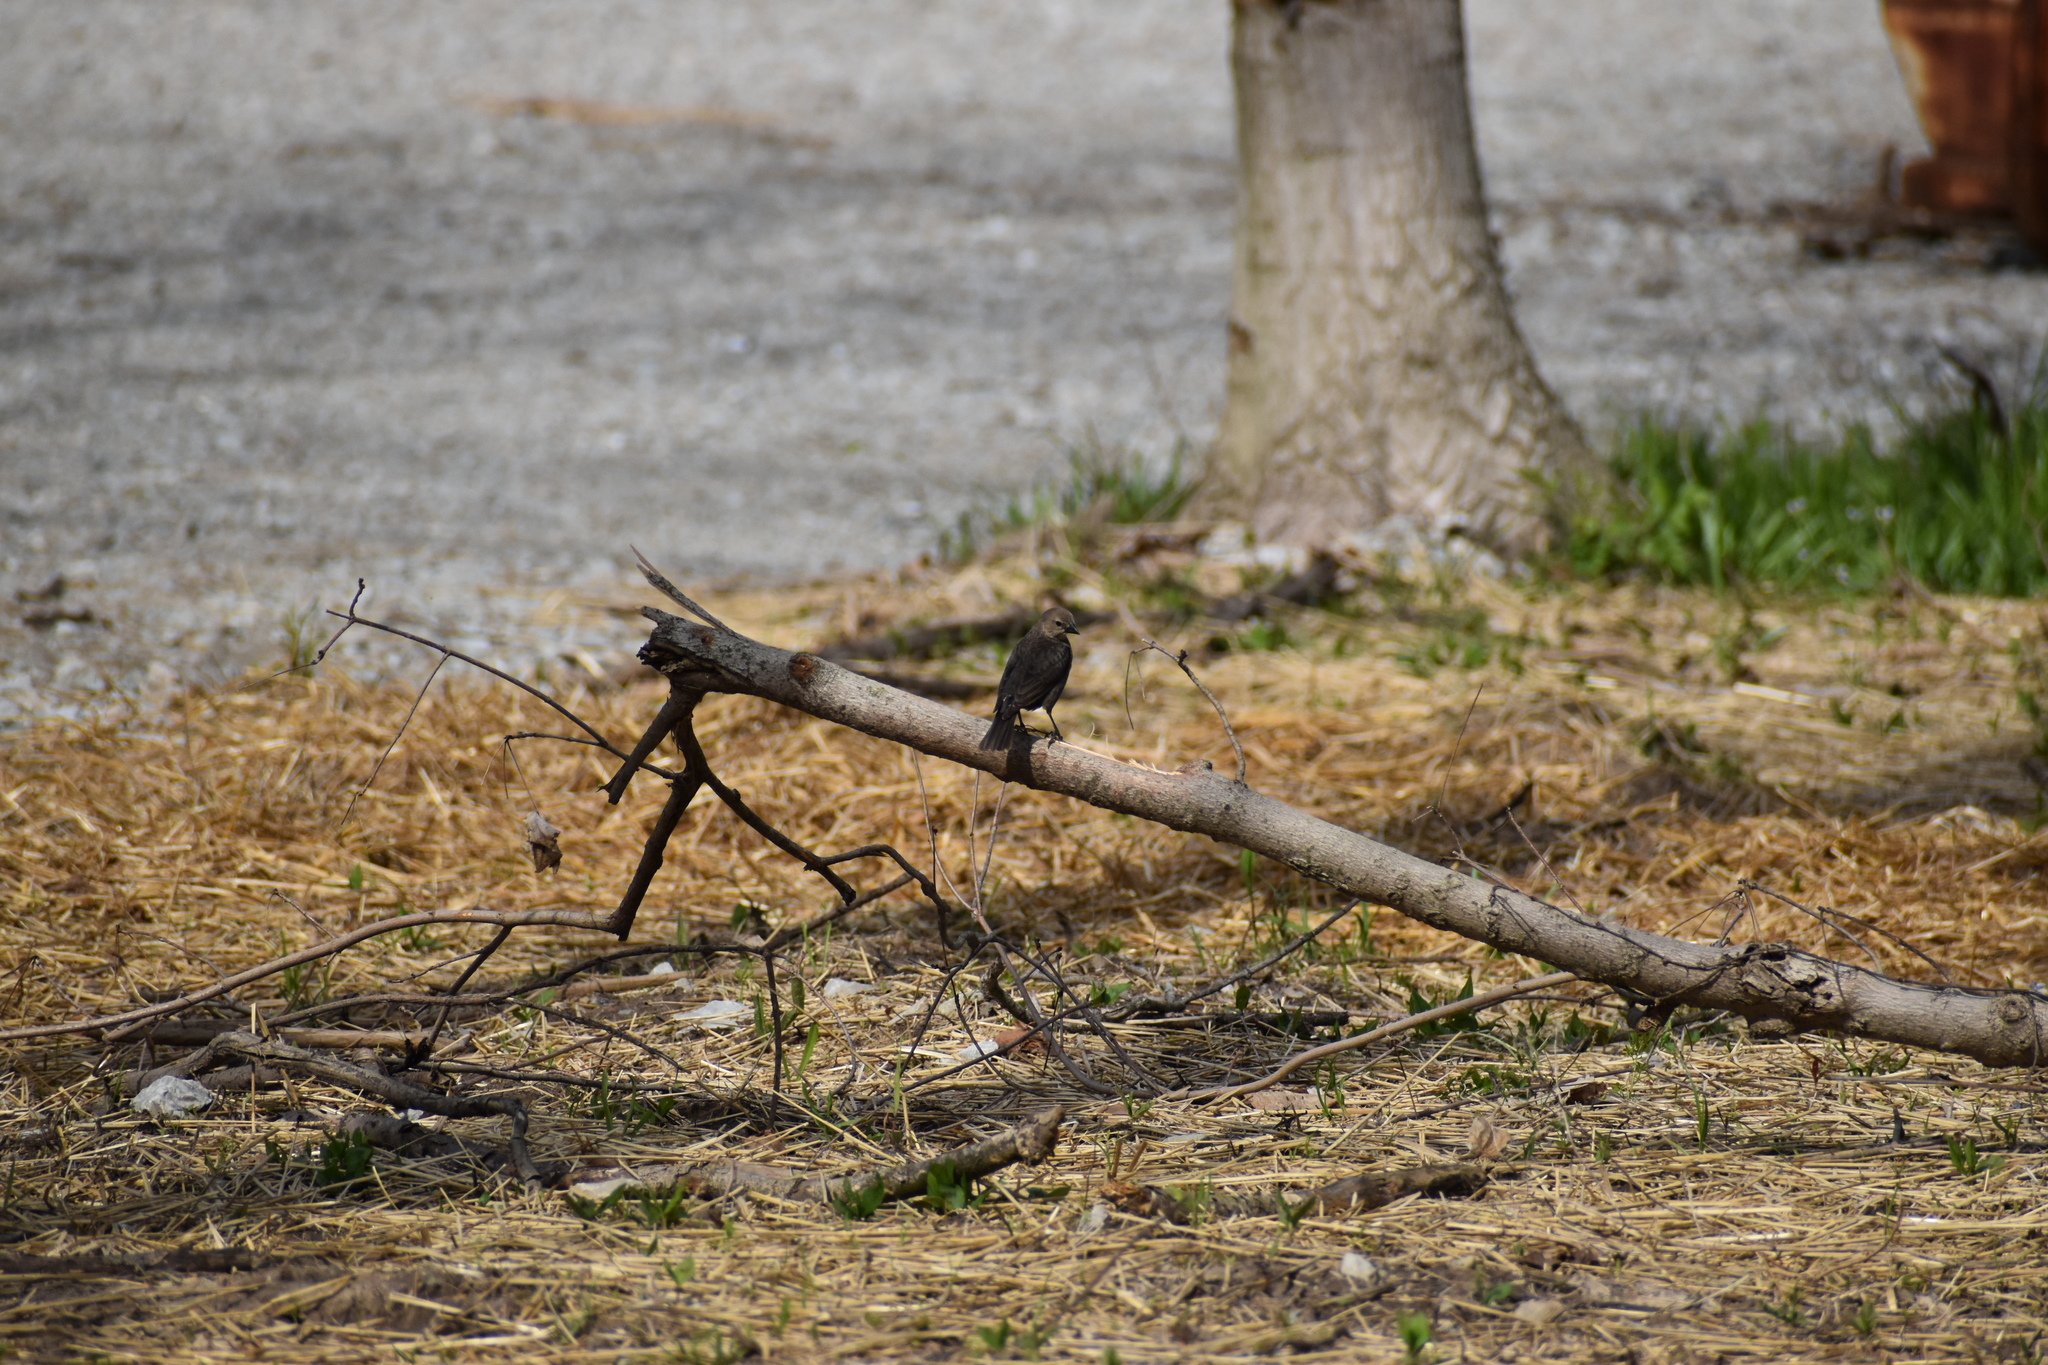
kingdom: Animalia
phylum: Chordata
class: Aves
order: Passeriformes
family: Icteridae
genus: Molothrus
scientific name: Molothrus ater
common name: Brown-headed cowbird
